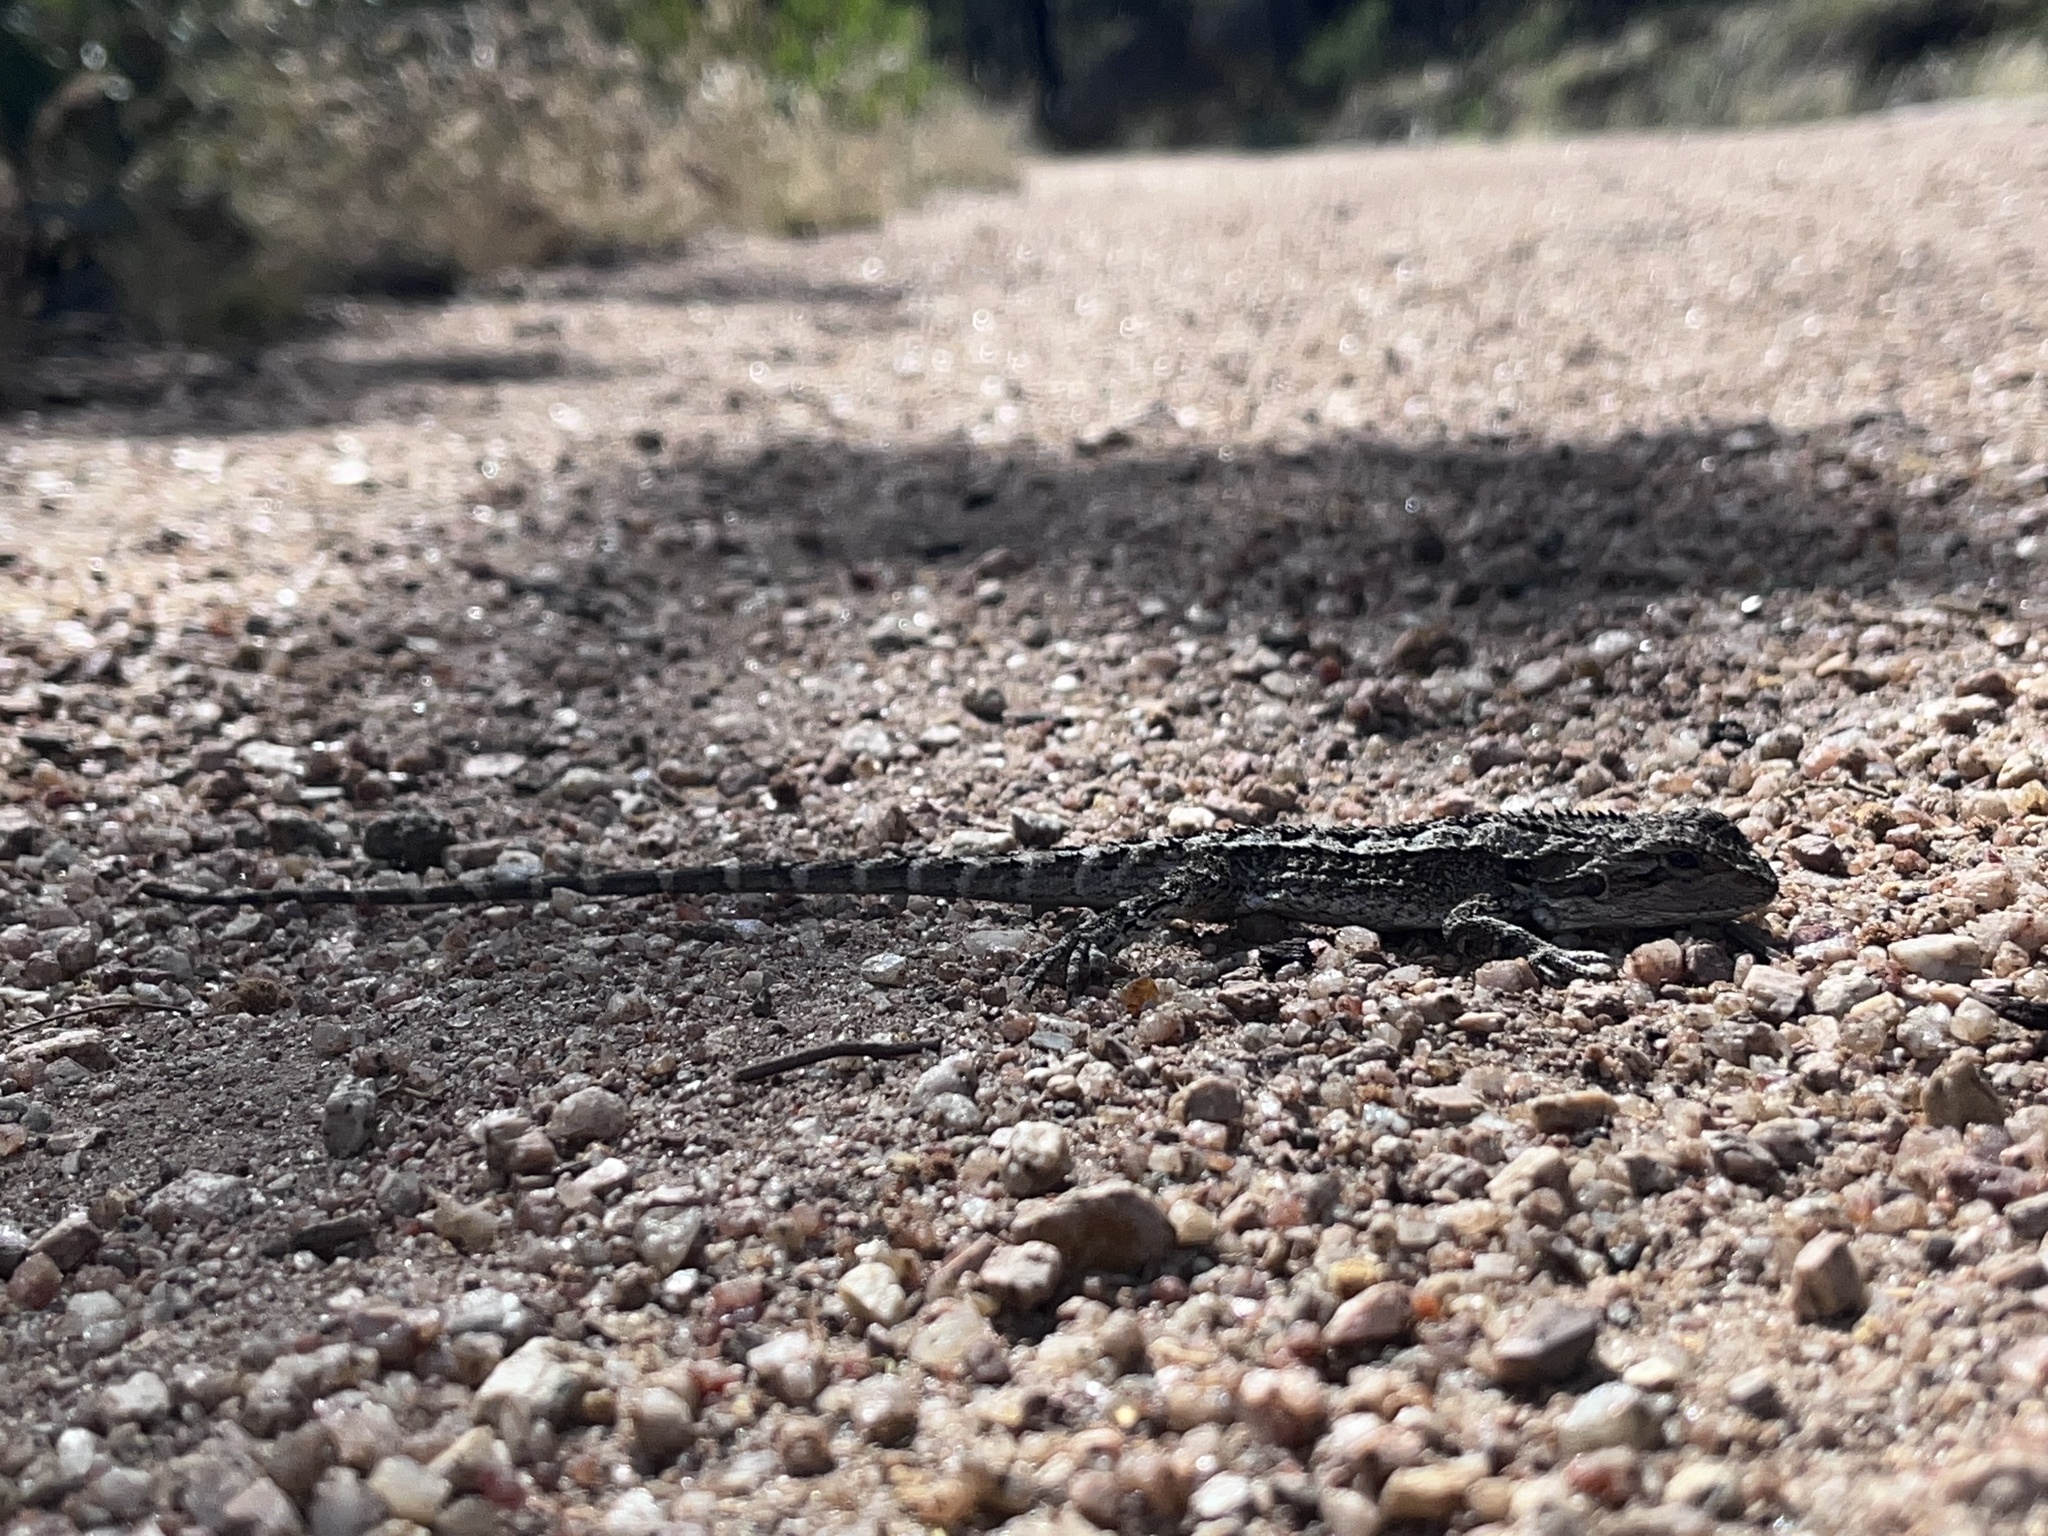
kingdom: Animalia
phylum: Chordata
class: Squamata
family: Agamidae
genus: Amphibolurus
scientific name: Amphibolurus muricatus
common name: Jacky lizard
